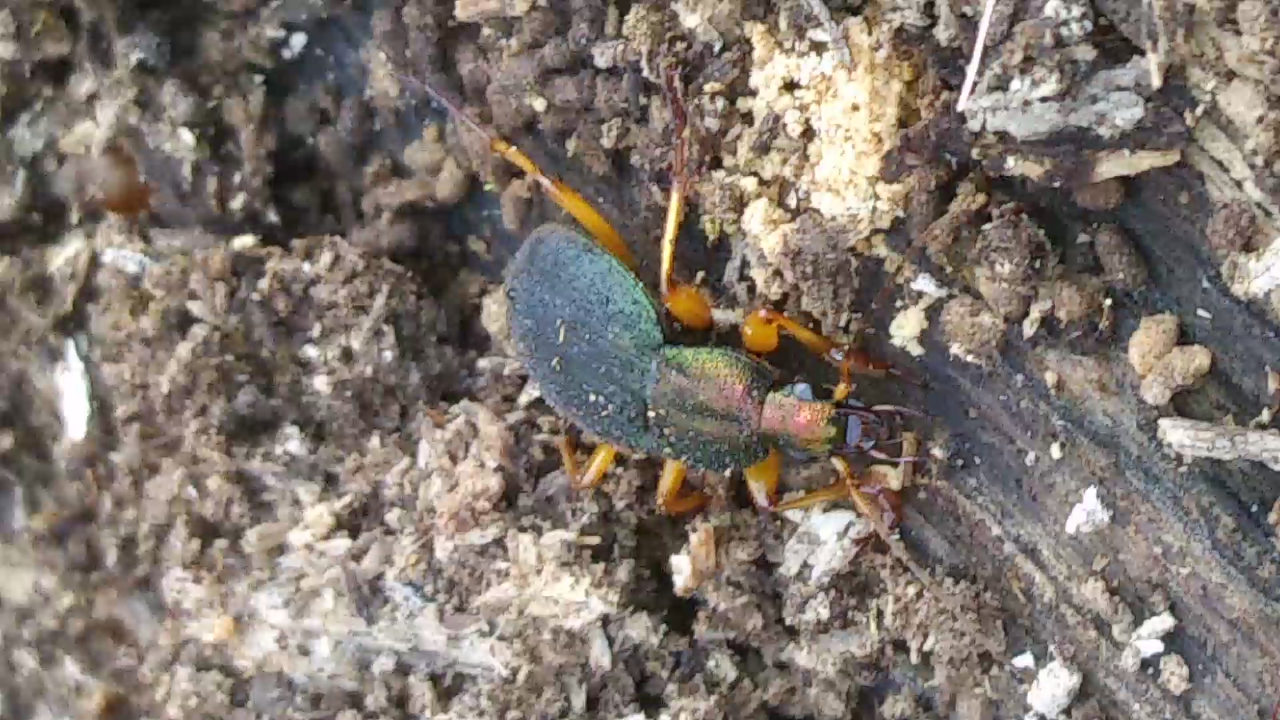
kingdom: Animalia
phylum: Arthropoda
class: Insecta
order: Coleoptera
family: Carabidae
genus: Chlaenius
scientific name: Chlaenius aestivus
